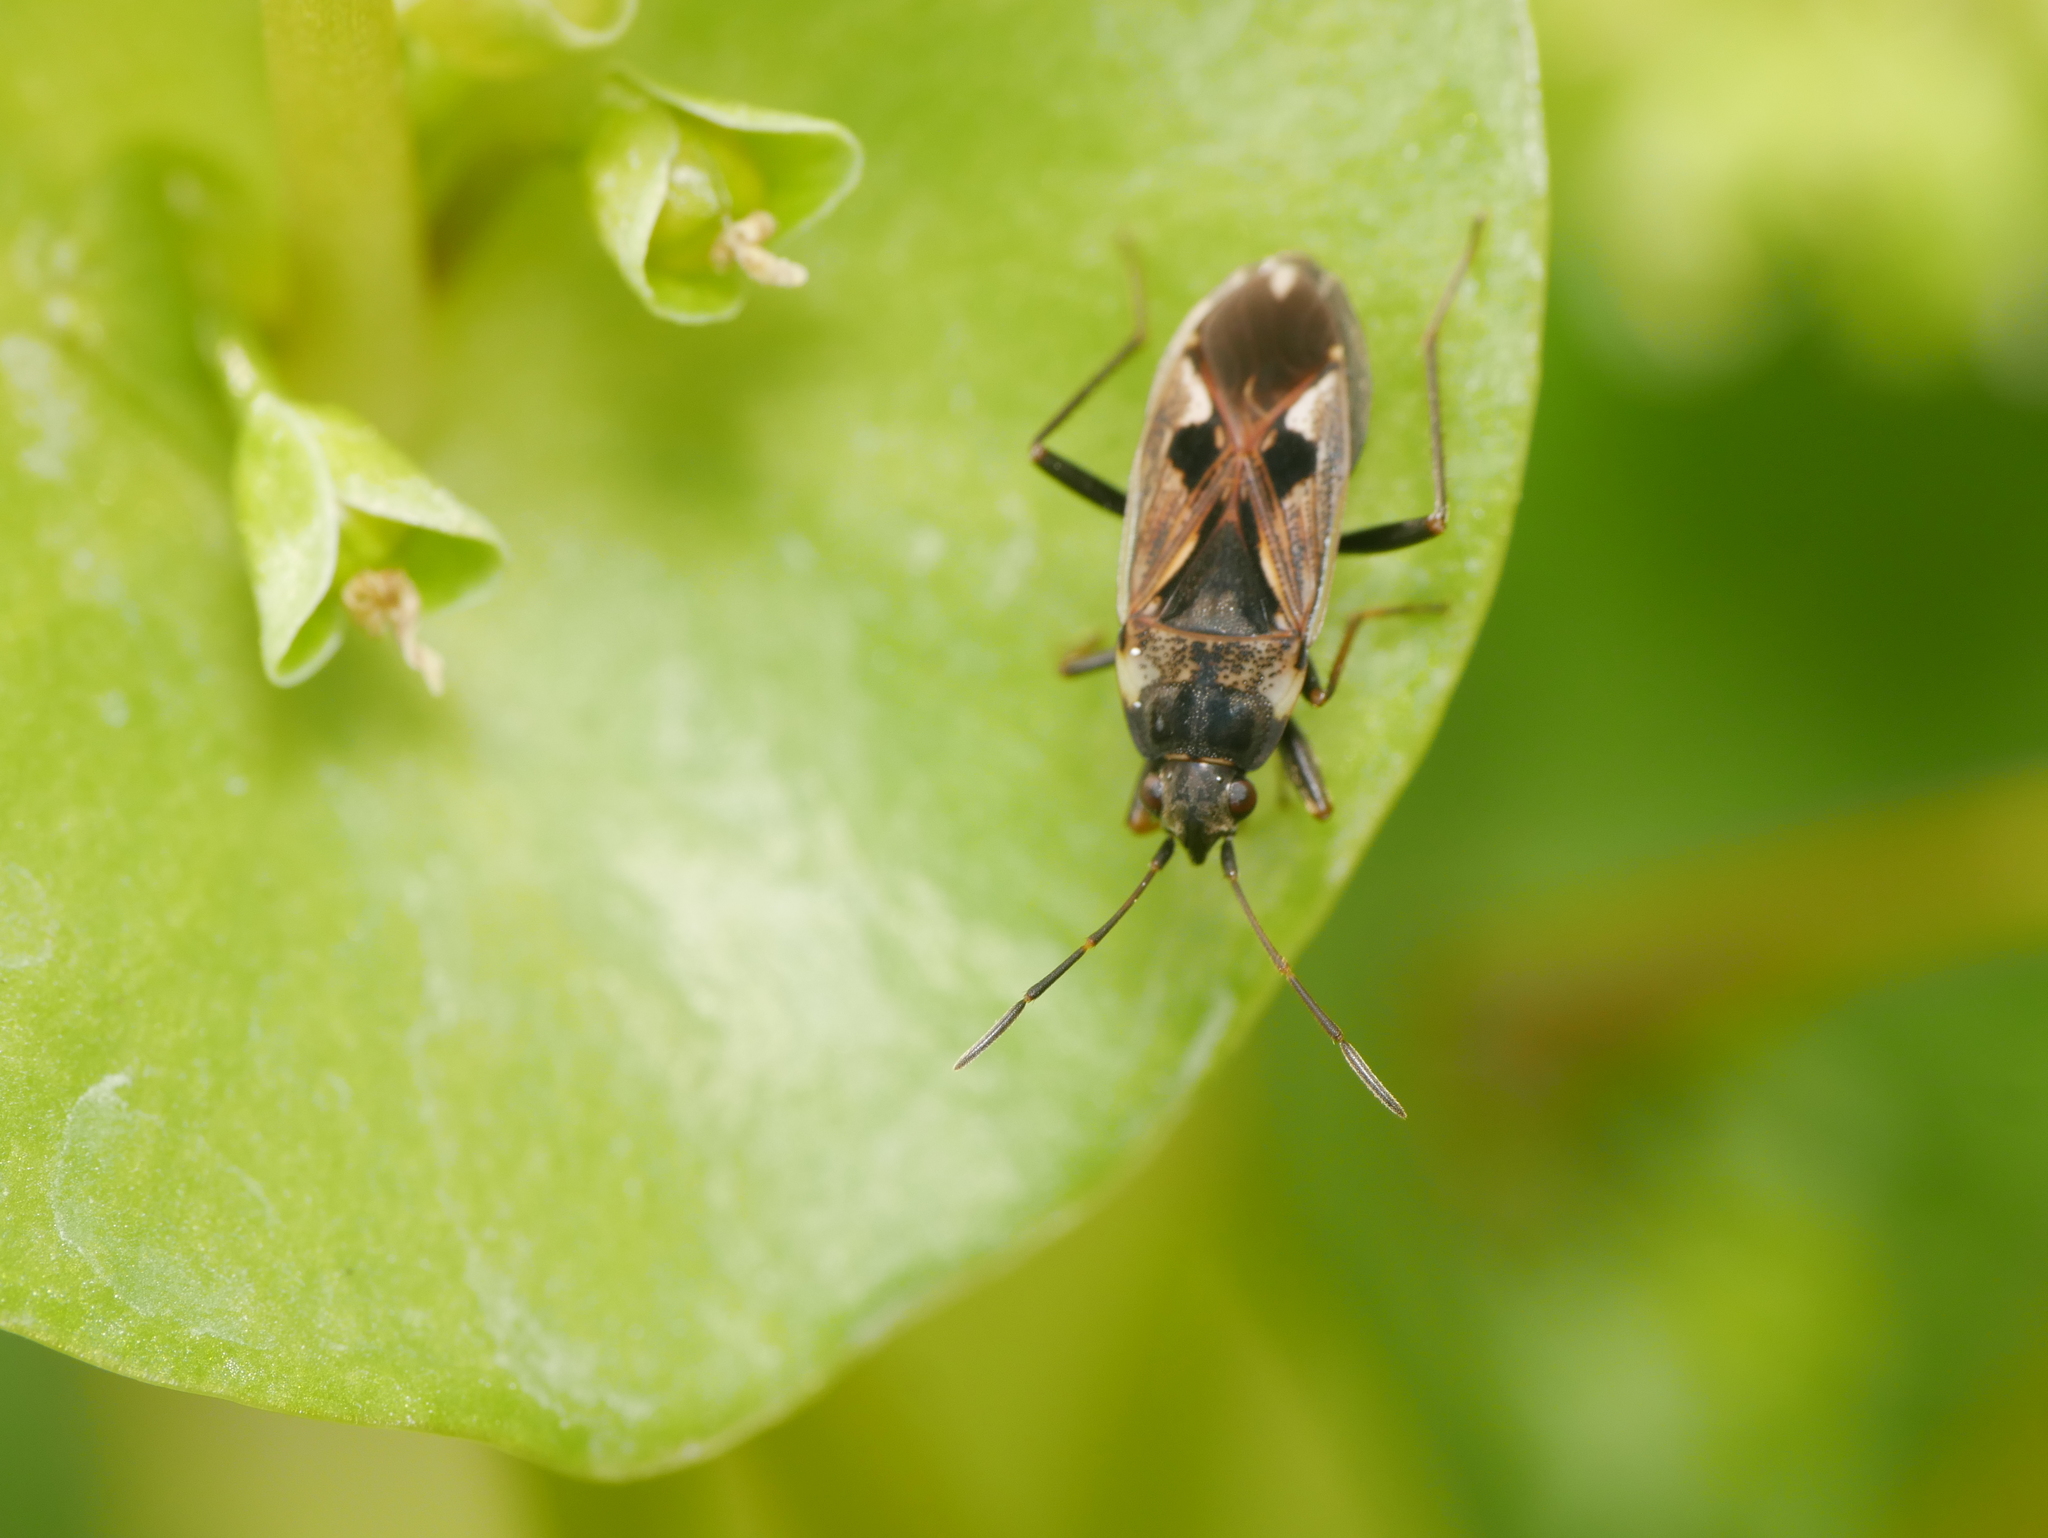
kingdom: Animalia
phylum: Arthropoda
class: Insecta
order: Hemiptera
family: Rhyparochromidae
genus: Rhyparochromus
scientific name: Rhyparochromus vulgaris
